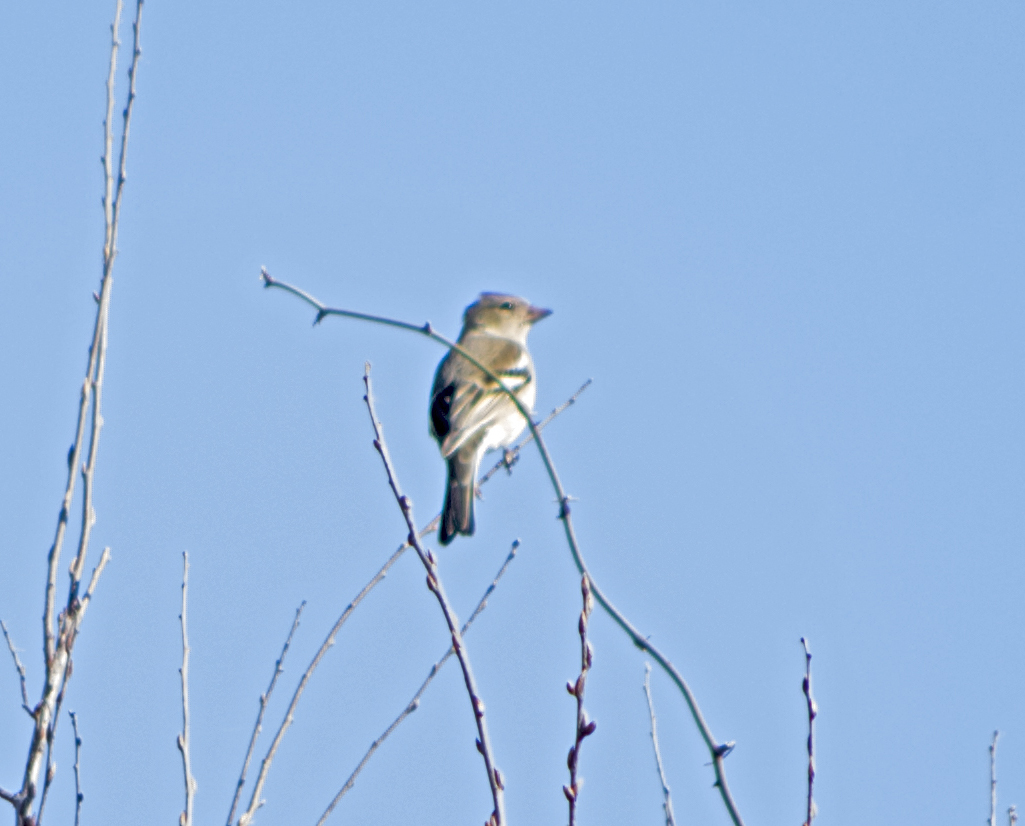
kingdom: Animalia
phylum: Chordata
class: Aves
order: Passeriformes
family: Fringillidae
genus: Fringilla
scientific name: Fringilla coelebs
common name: Common chaffinch
